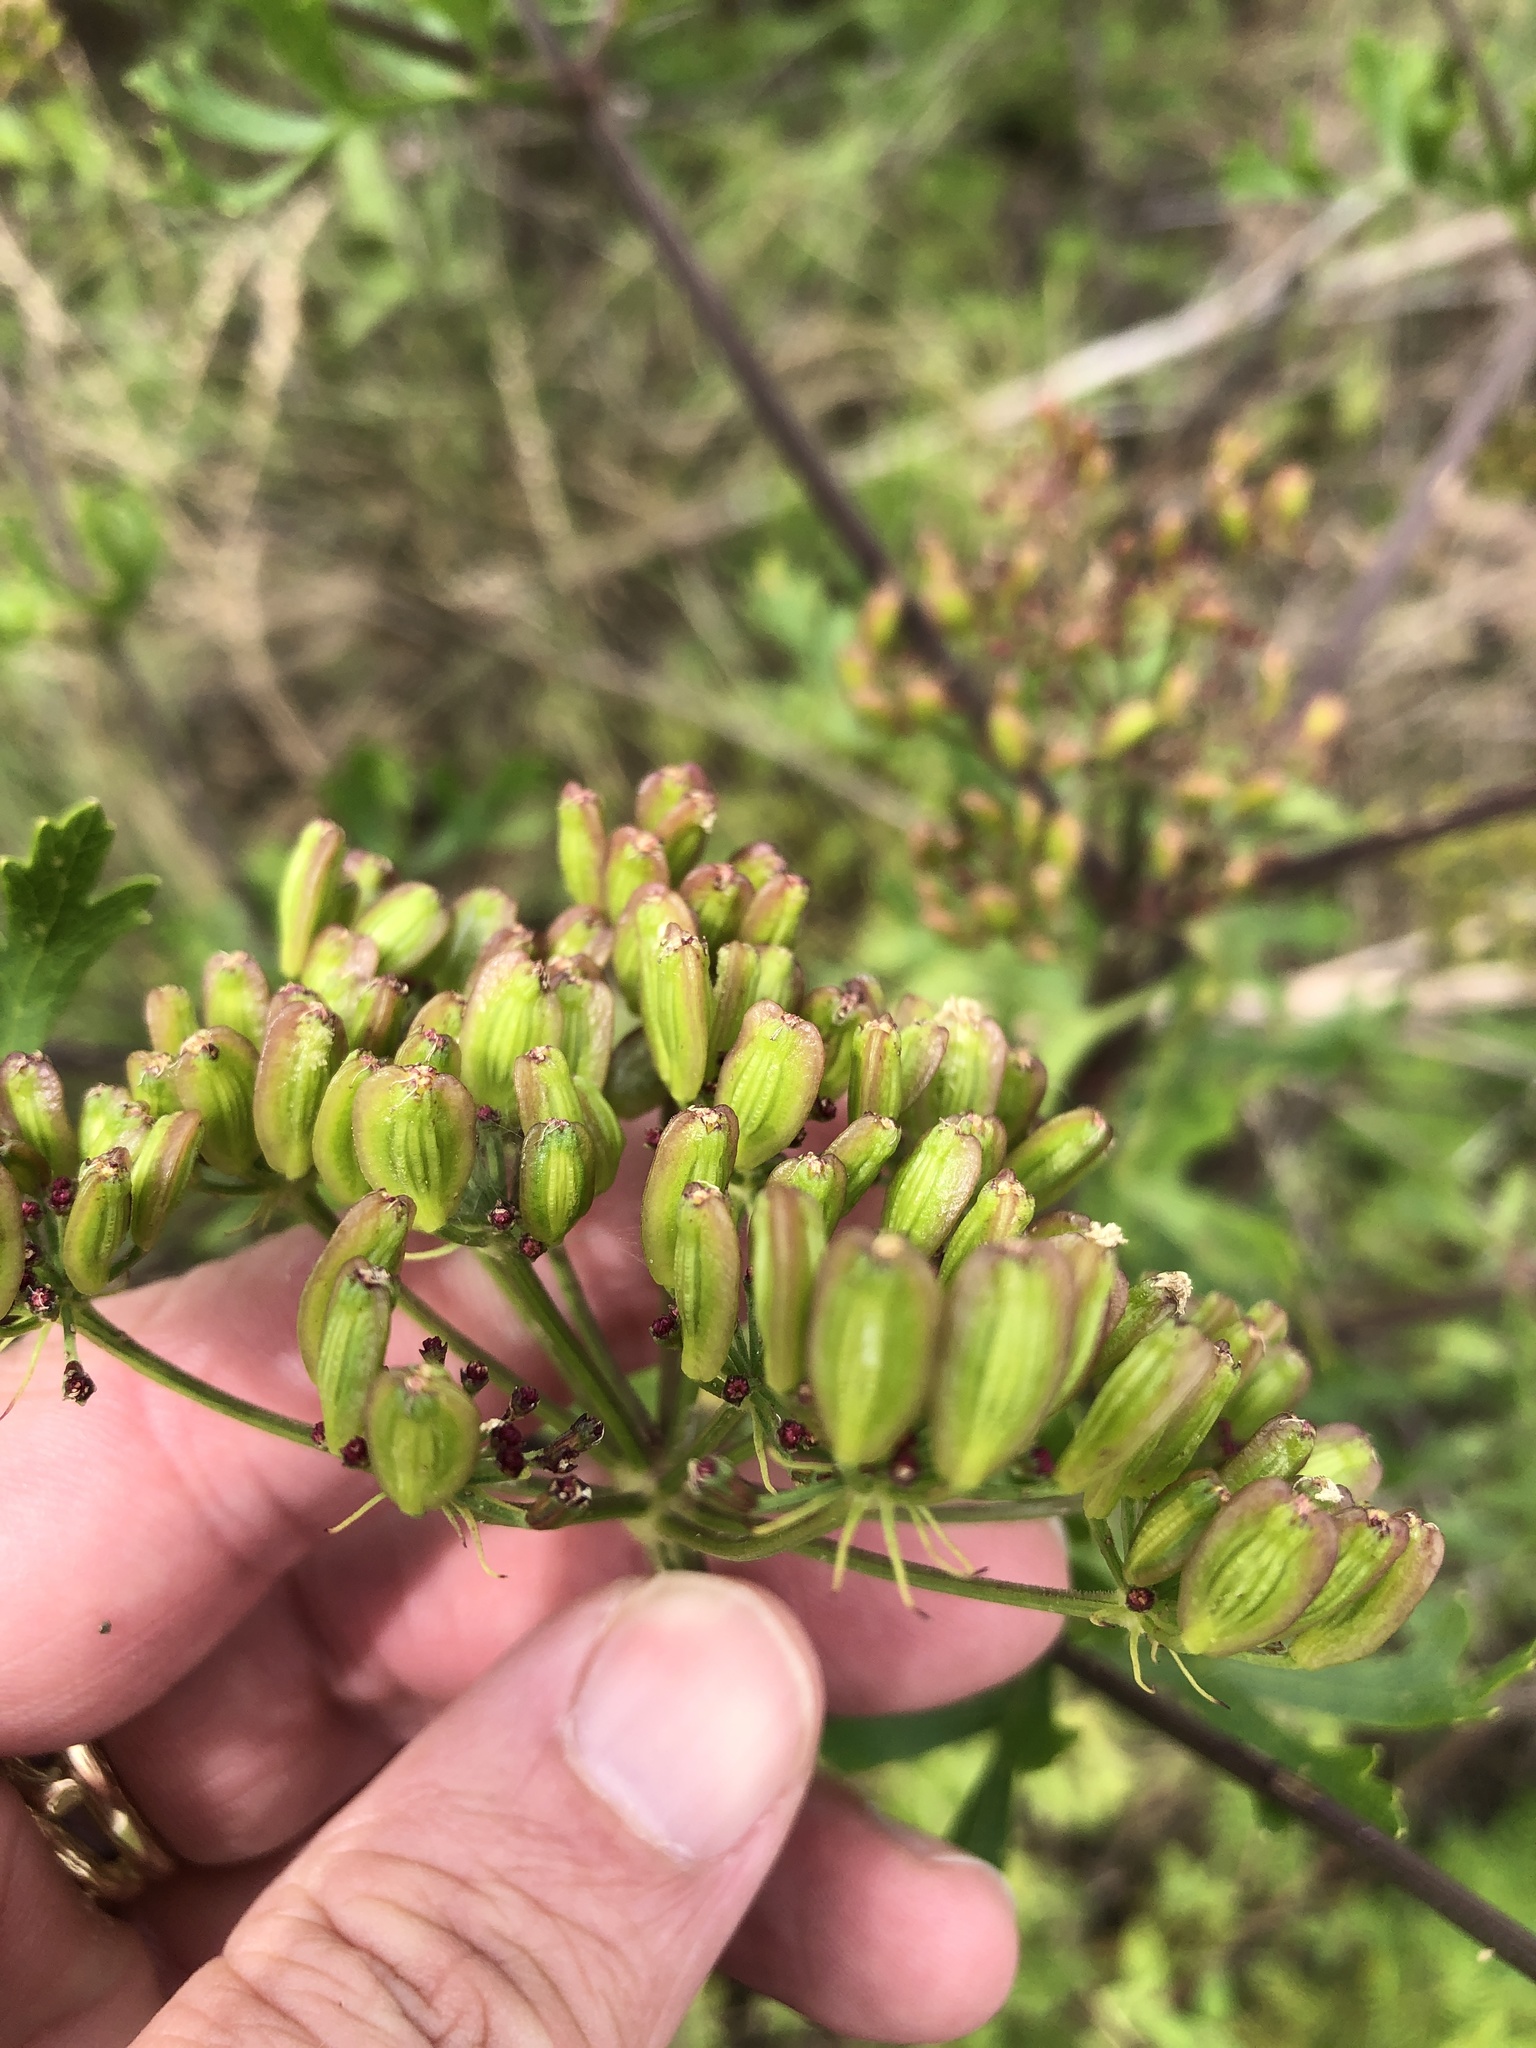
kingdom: Plantae
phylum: Tracheophyta
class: Magnoliopsida
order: Apiales
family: Apiaceae
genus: Polytaenia
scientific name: Polytaenia texana
